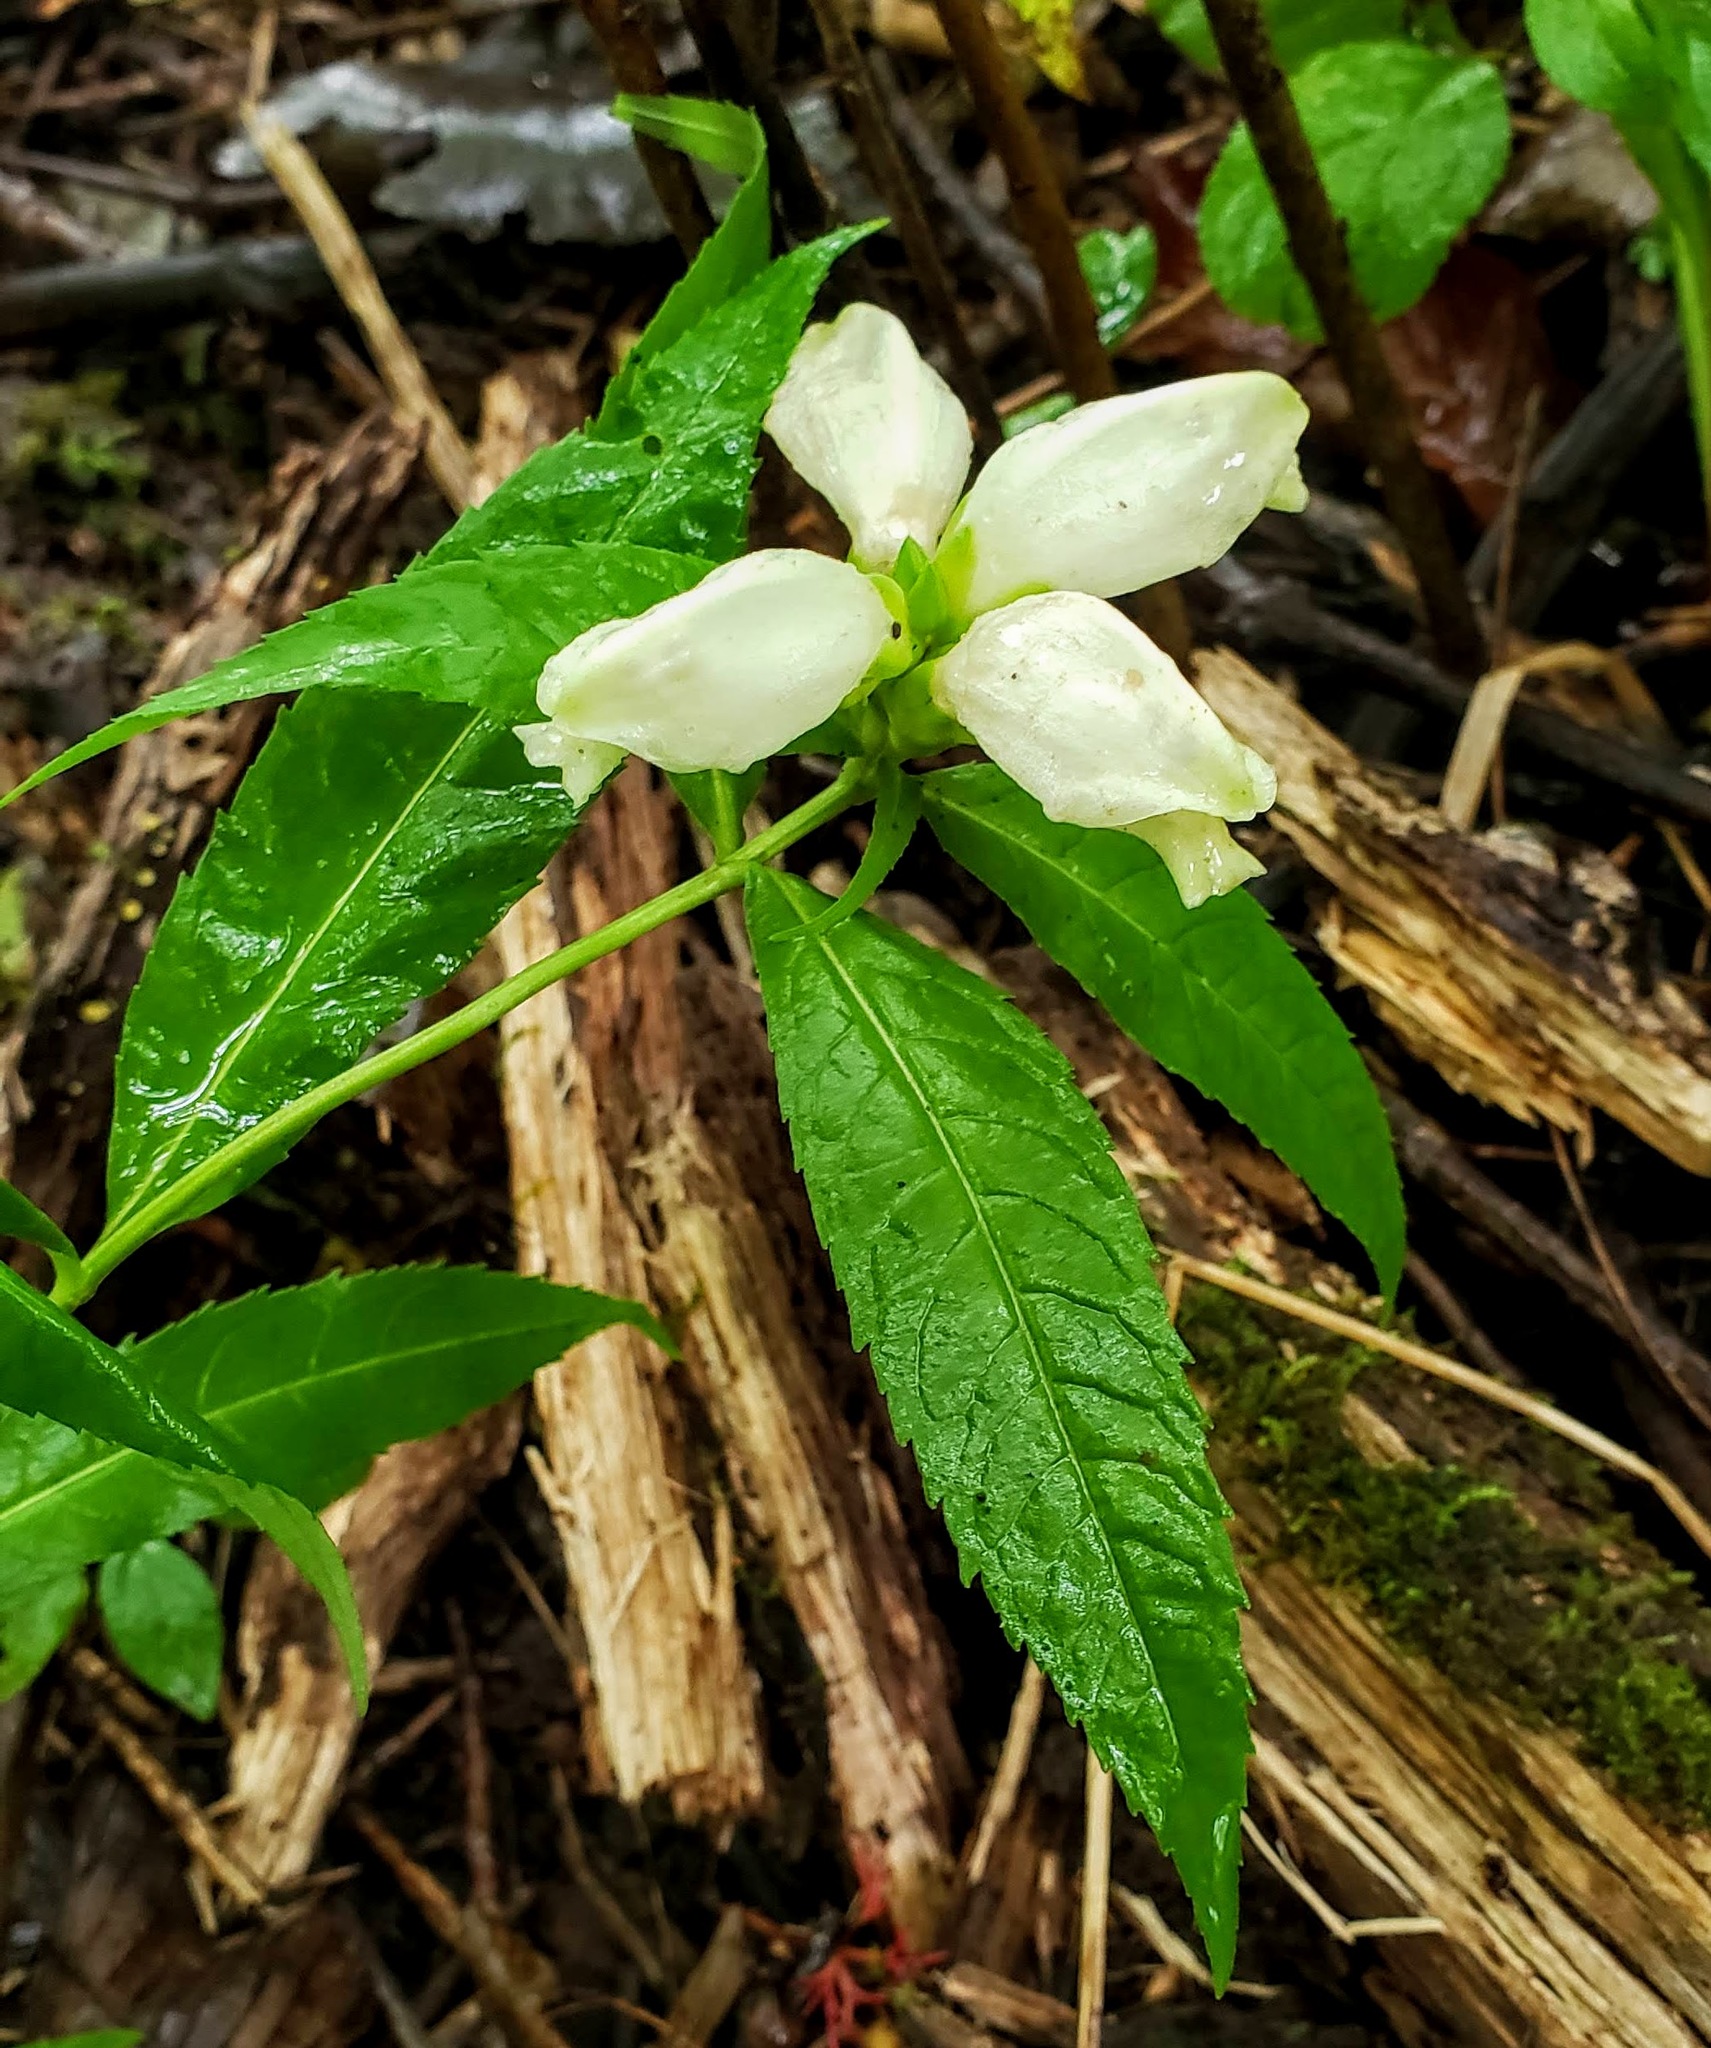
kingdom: Plantae
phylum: Tracheophyta
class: Magnoliopsida
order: Lamiales
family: Plantaginaceae
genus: Chelone
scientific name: Chelone glabra
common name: Snakehead
